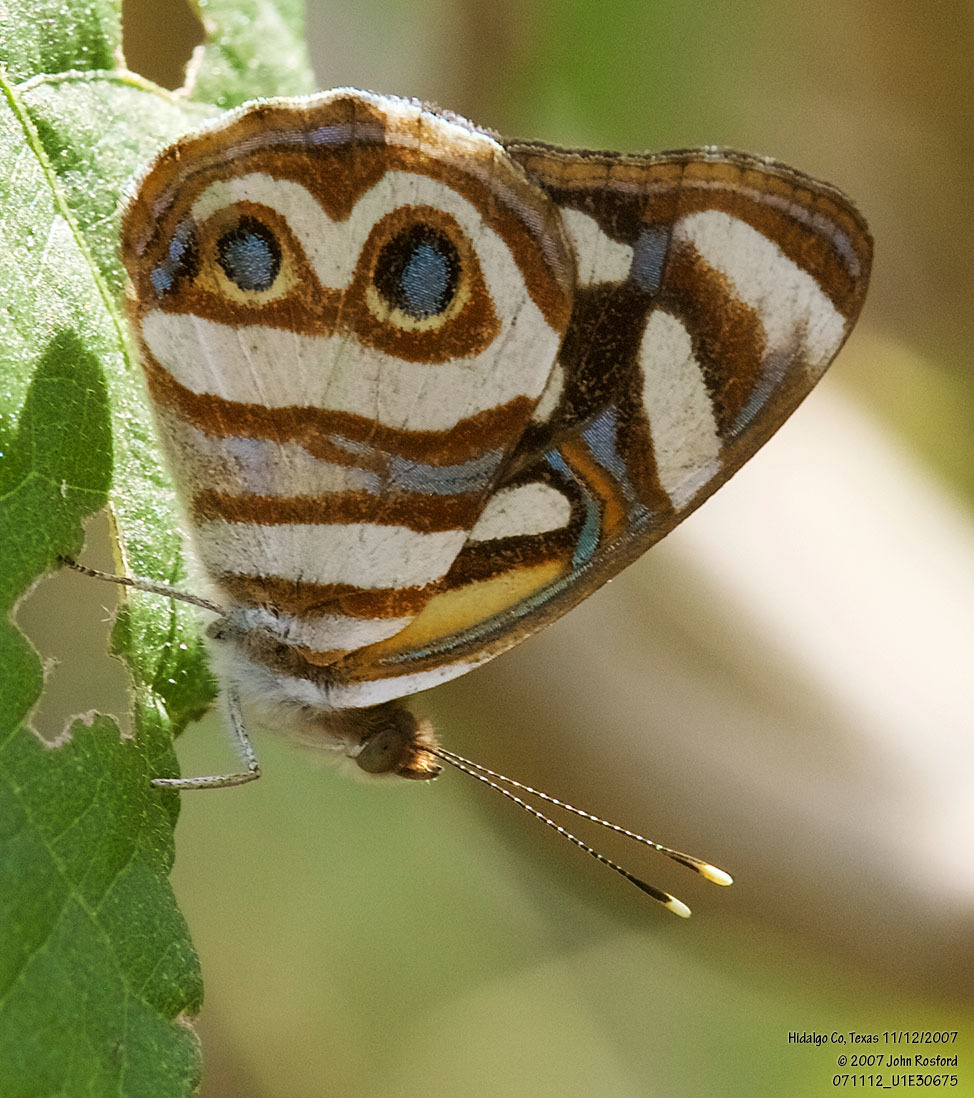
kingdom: Animalia
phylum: Arthropoda
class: Insecta
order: Lepidoptera
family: Nymphalidae
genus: Dynamine
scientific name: Dynamine dyonis
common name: Blue-eyed sailor
